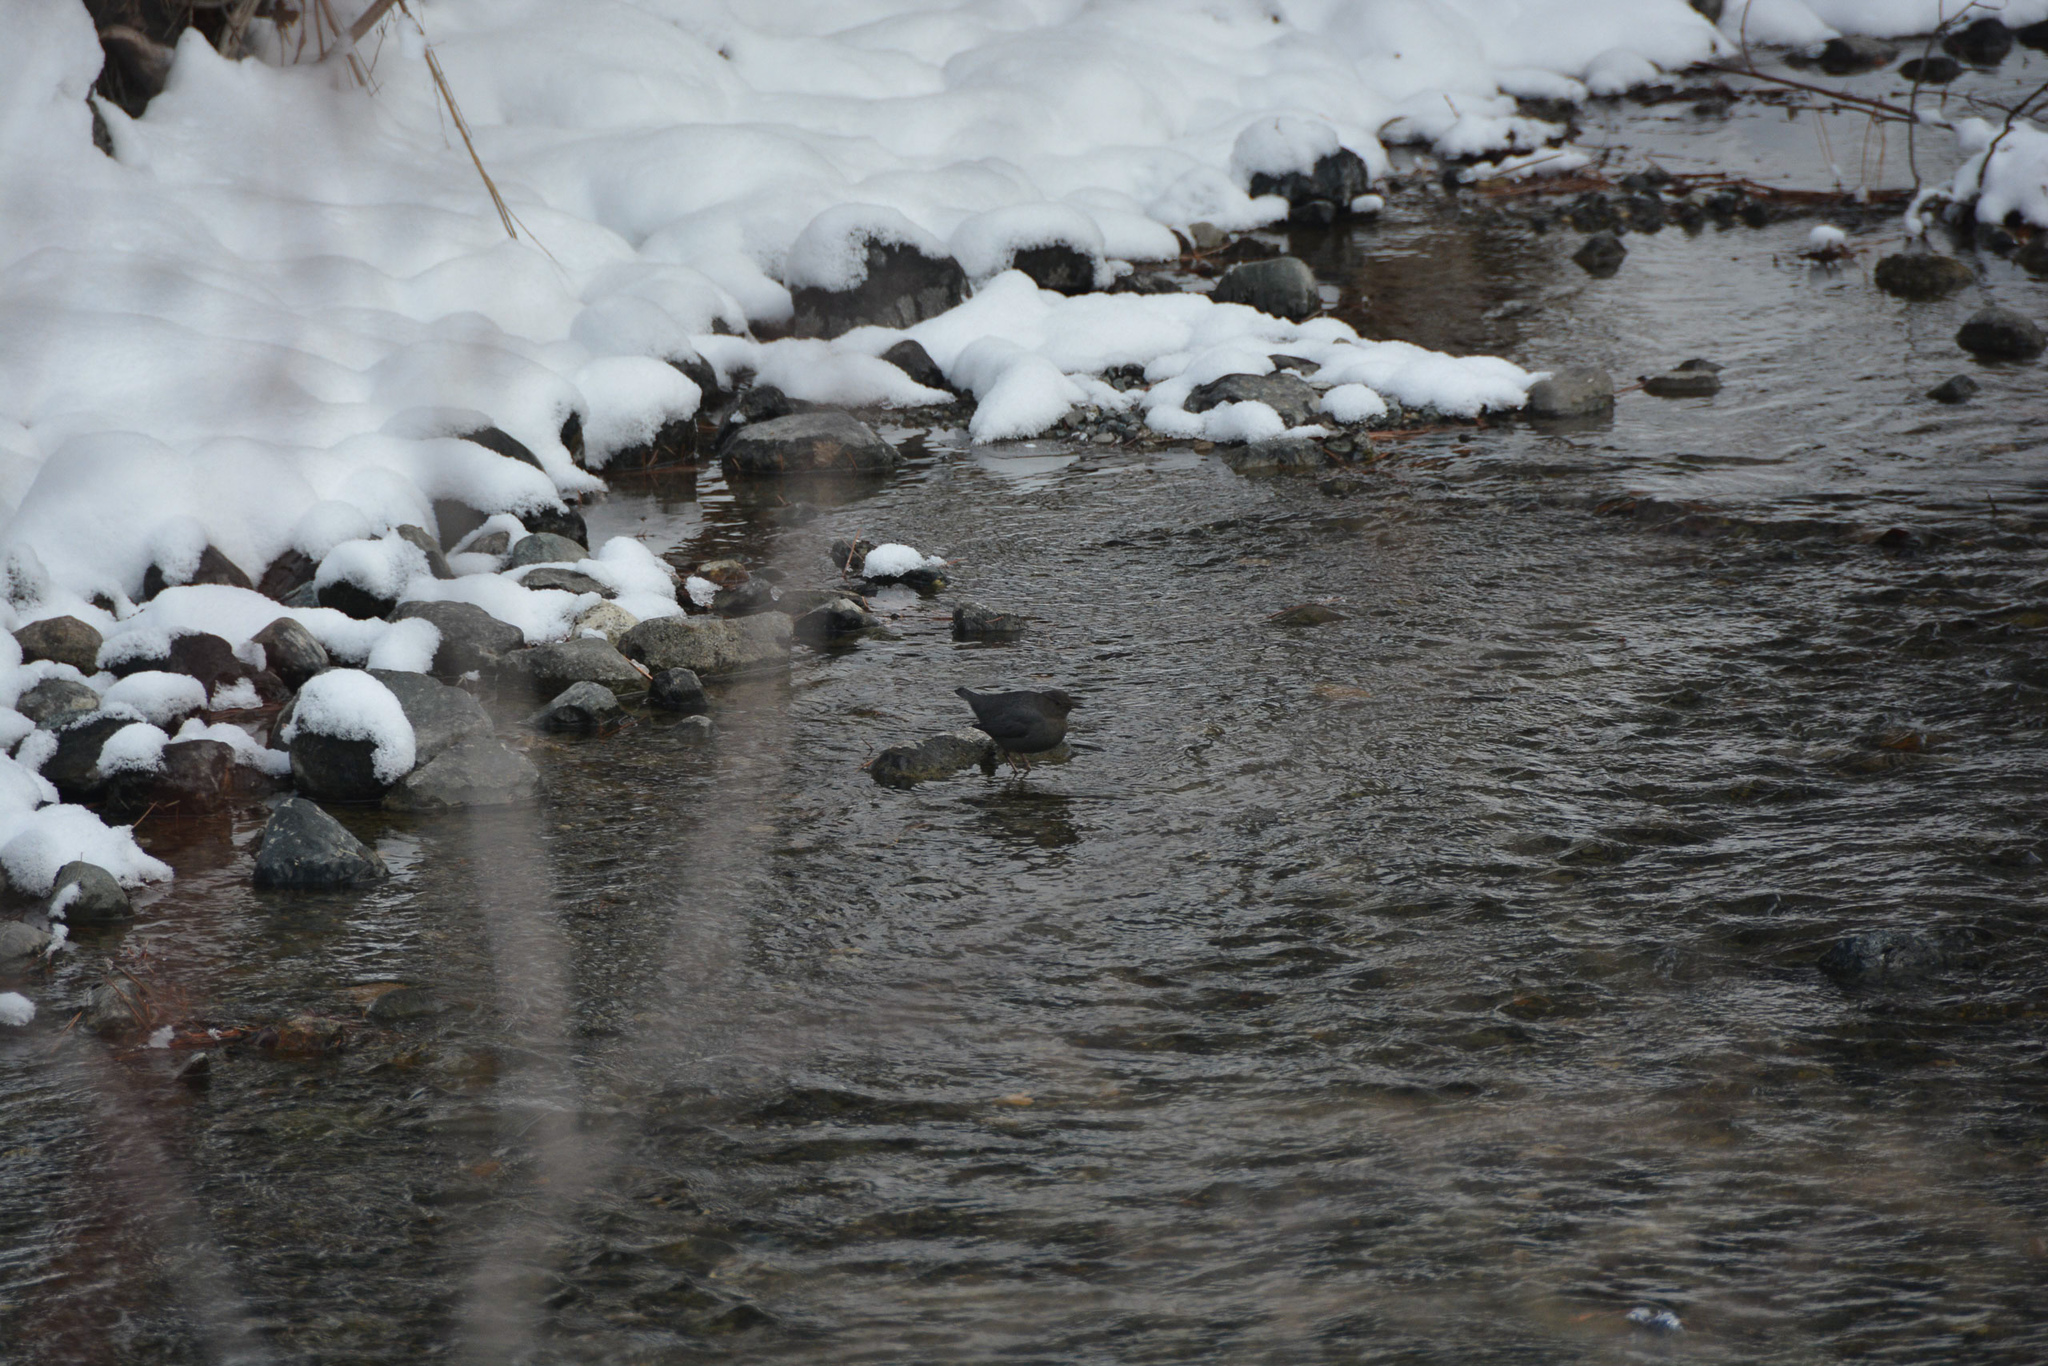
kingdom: Animalia
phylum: Chordata
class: Aves
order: Passeriformes
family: Cinclidae
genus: Cinclus
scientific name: Cinclus mexicanus
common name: American dipper
